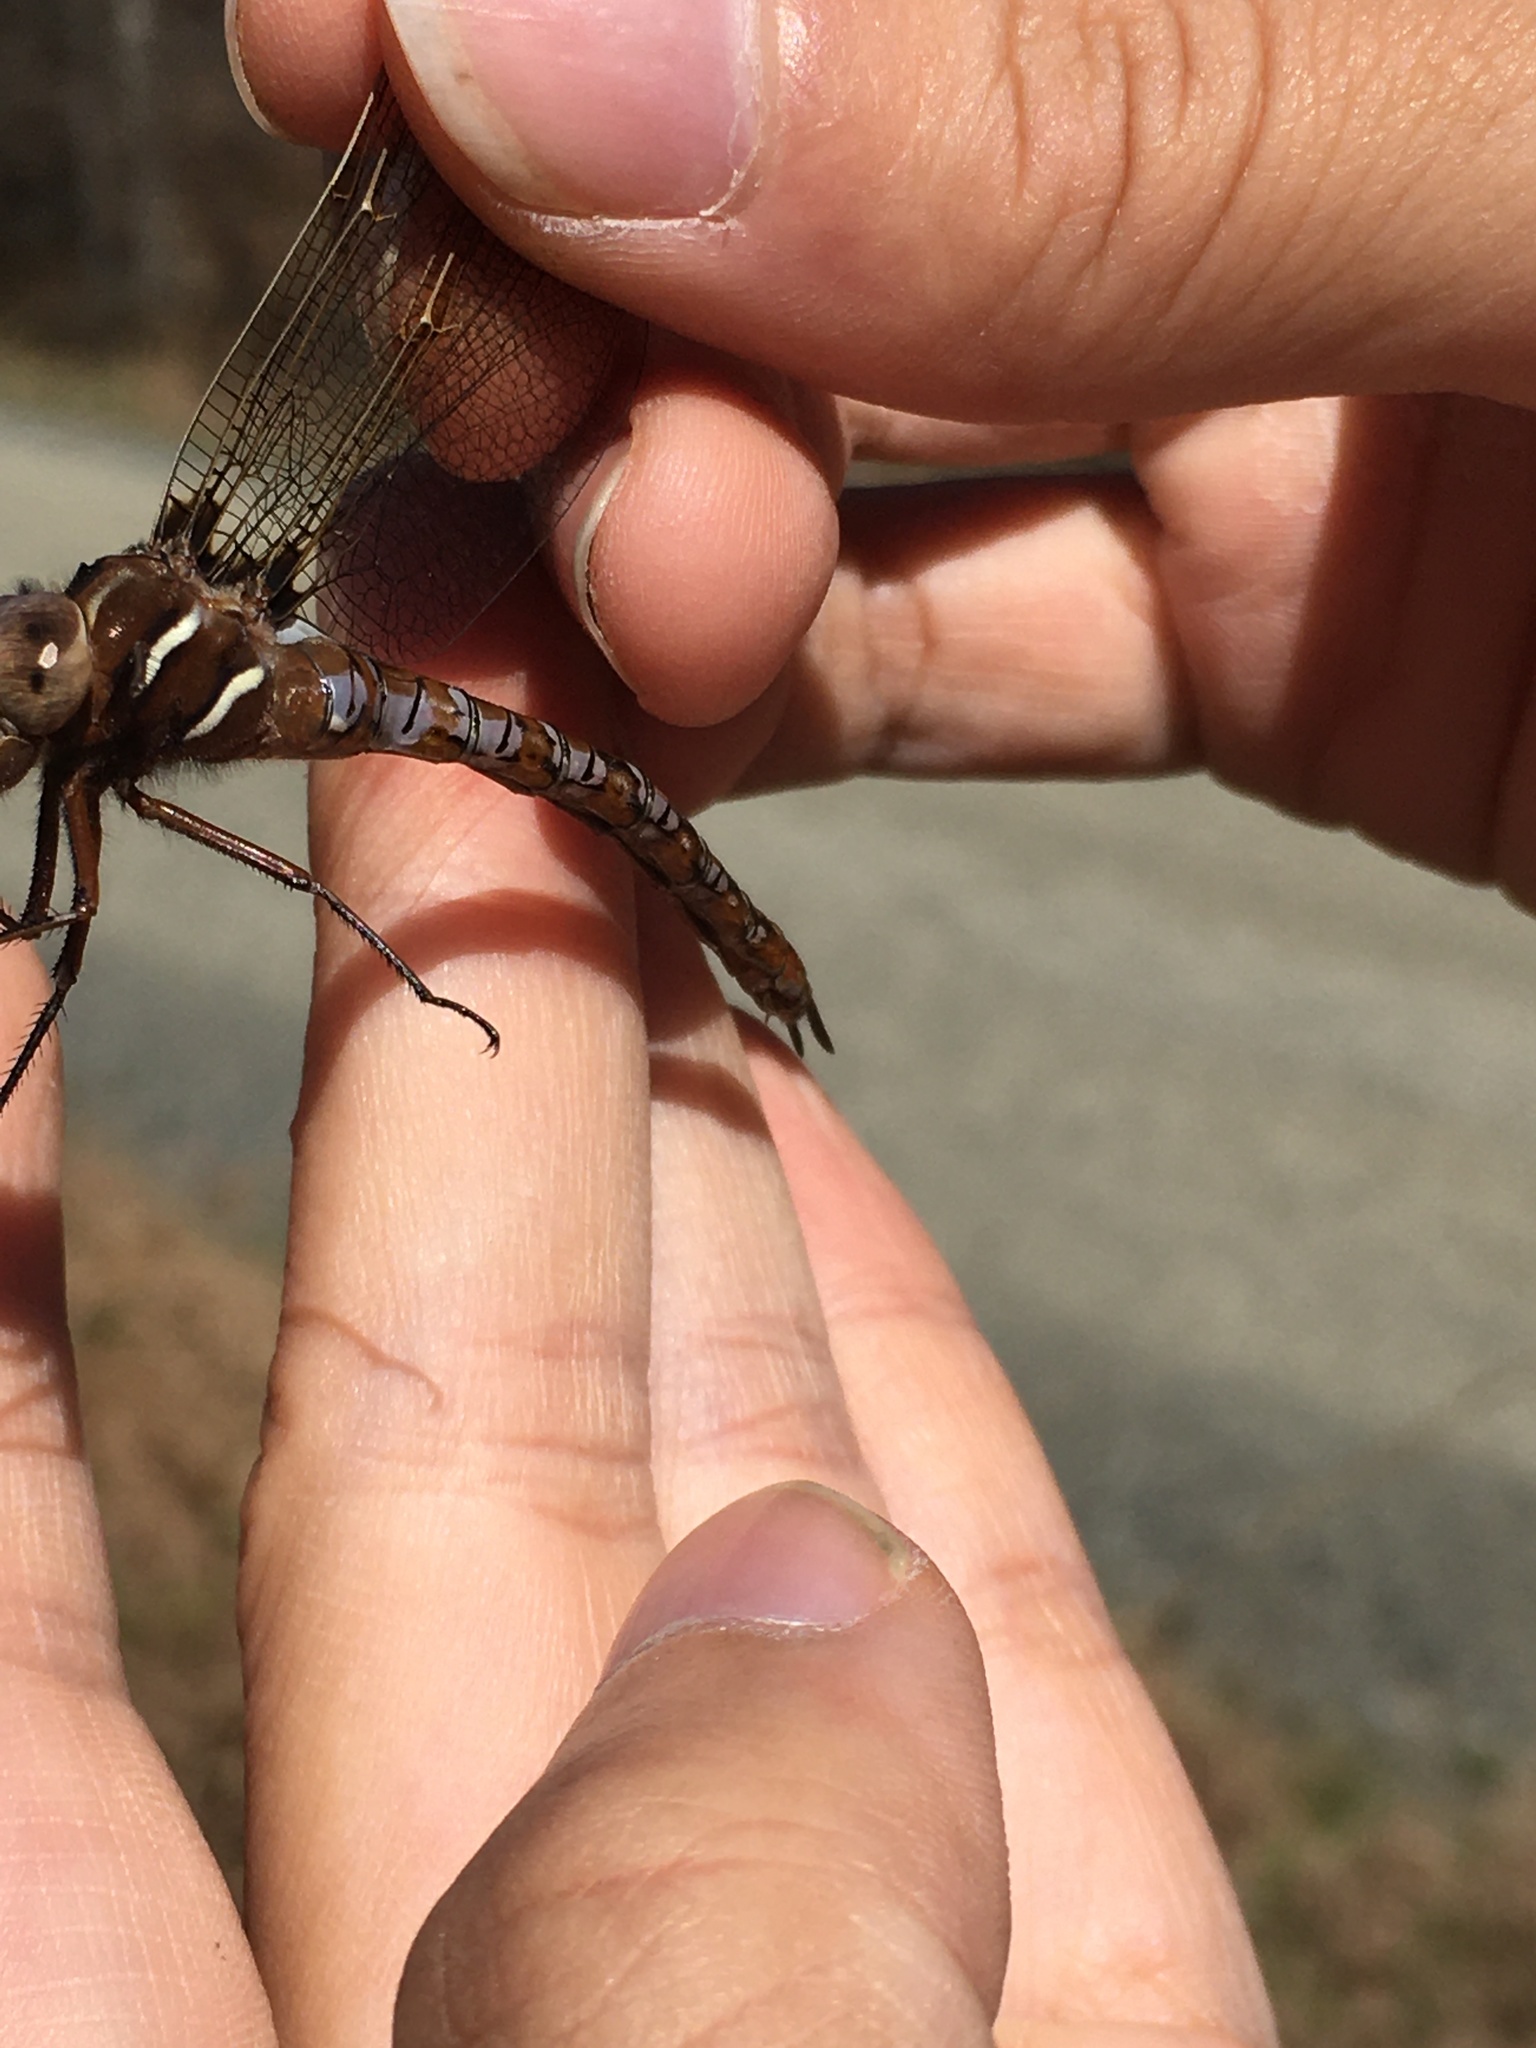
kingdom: Animalia
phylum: Arthropoda
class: Insecta
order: Odonata
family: Aeshnidae
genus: Basiaeschna
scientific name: Basiaeschna janata
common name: Springtime darner
